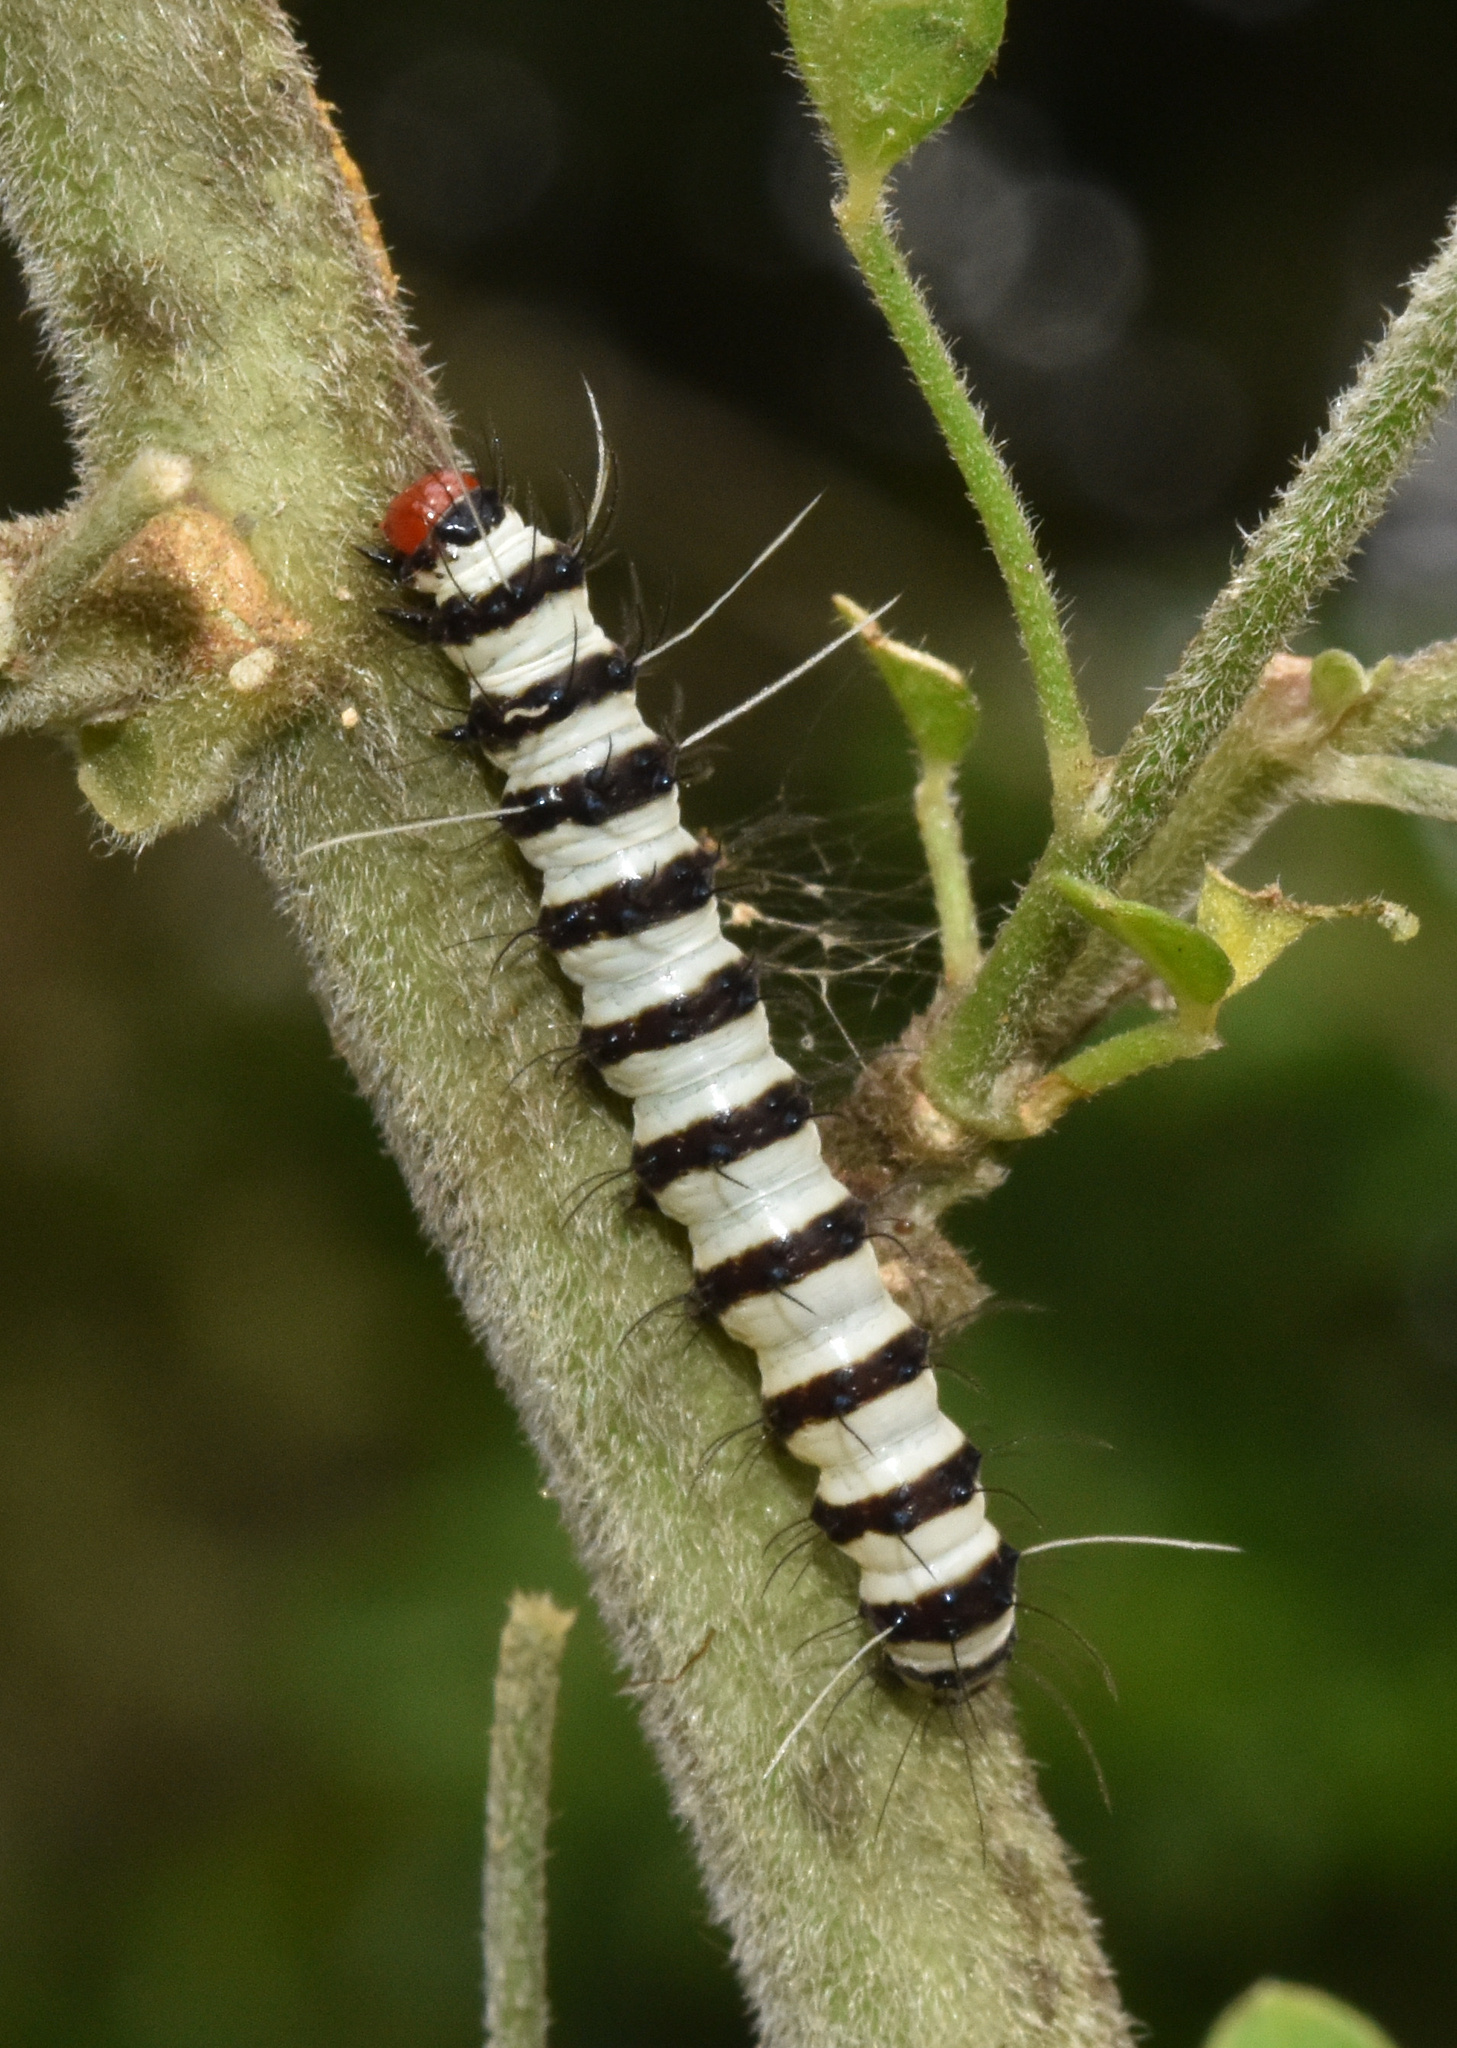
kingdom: Animalia
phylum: Arthropoda
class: Insecta
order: Lepidoptera
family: Erebidae
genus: Amphicallia
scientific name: Amphicallia bellatrix
